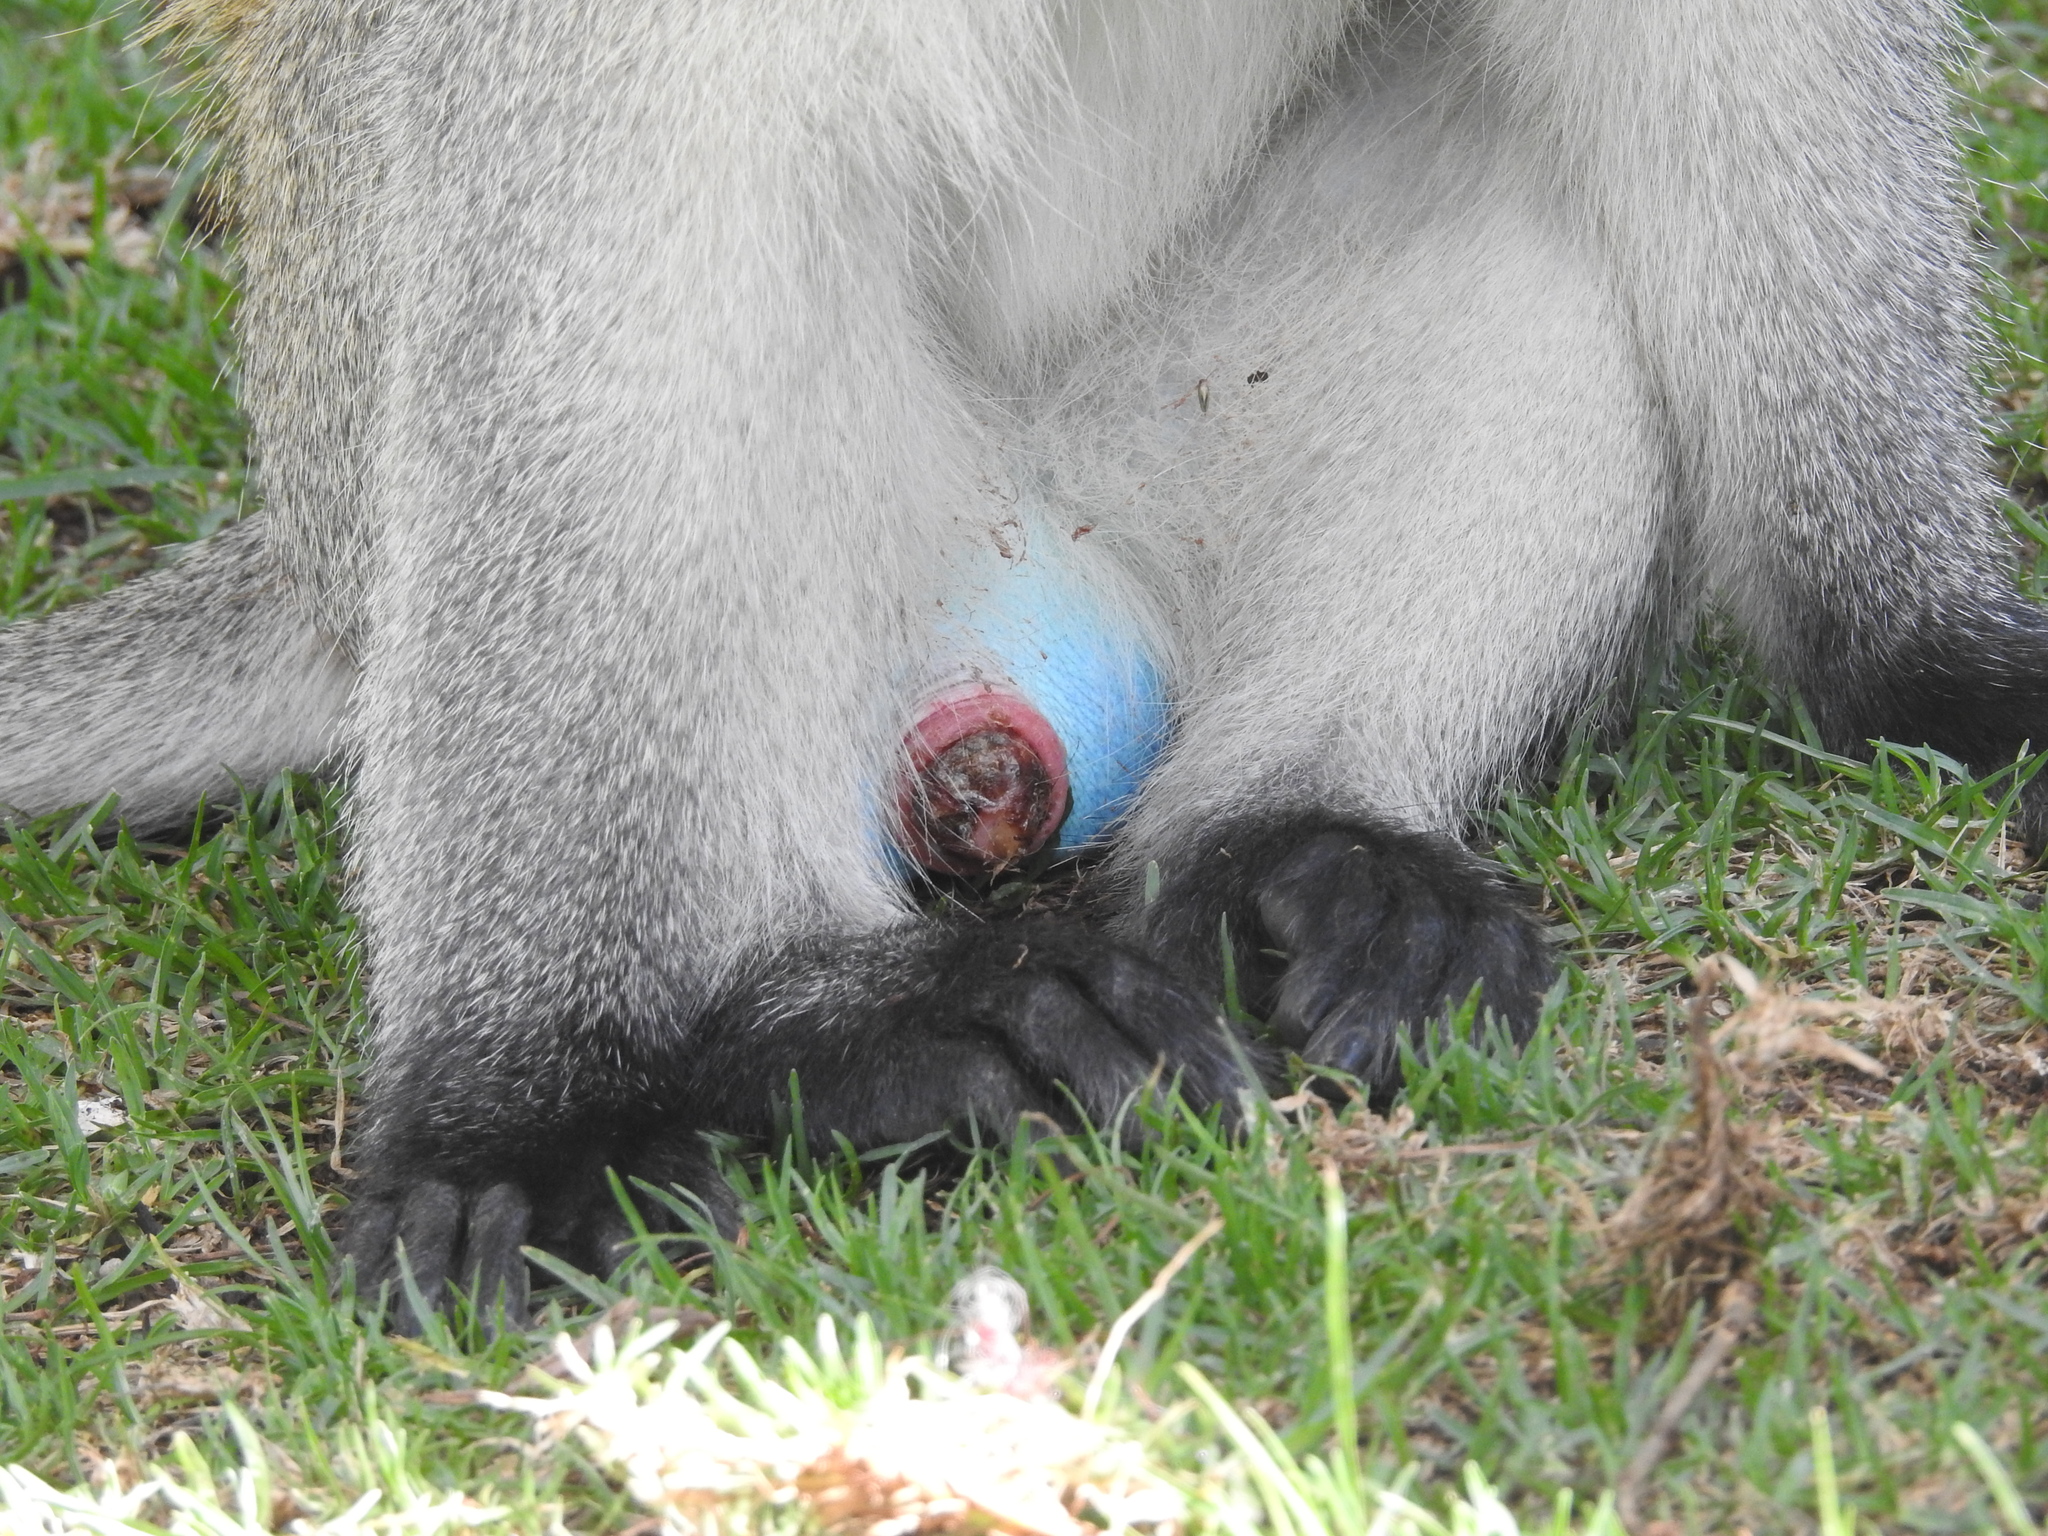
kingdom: Animalia
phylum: Chordata
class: Mammalia
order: Primates
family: Cercopithecidae
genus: Chlorocebus
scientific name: Chlorocebus pygerythrus
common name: Vervet monkey
